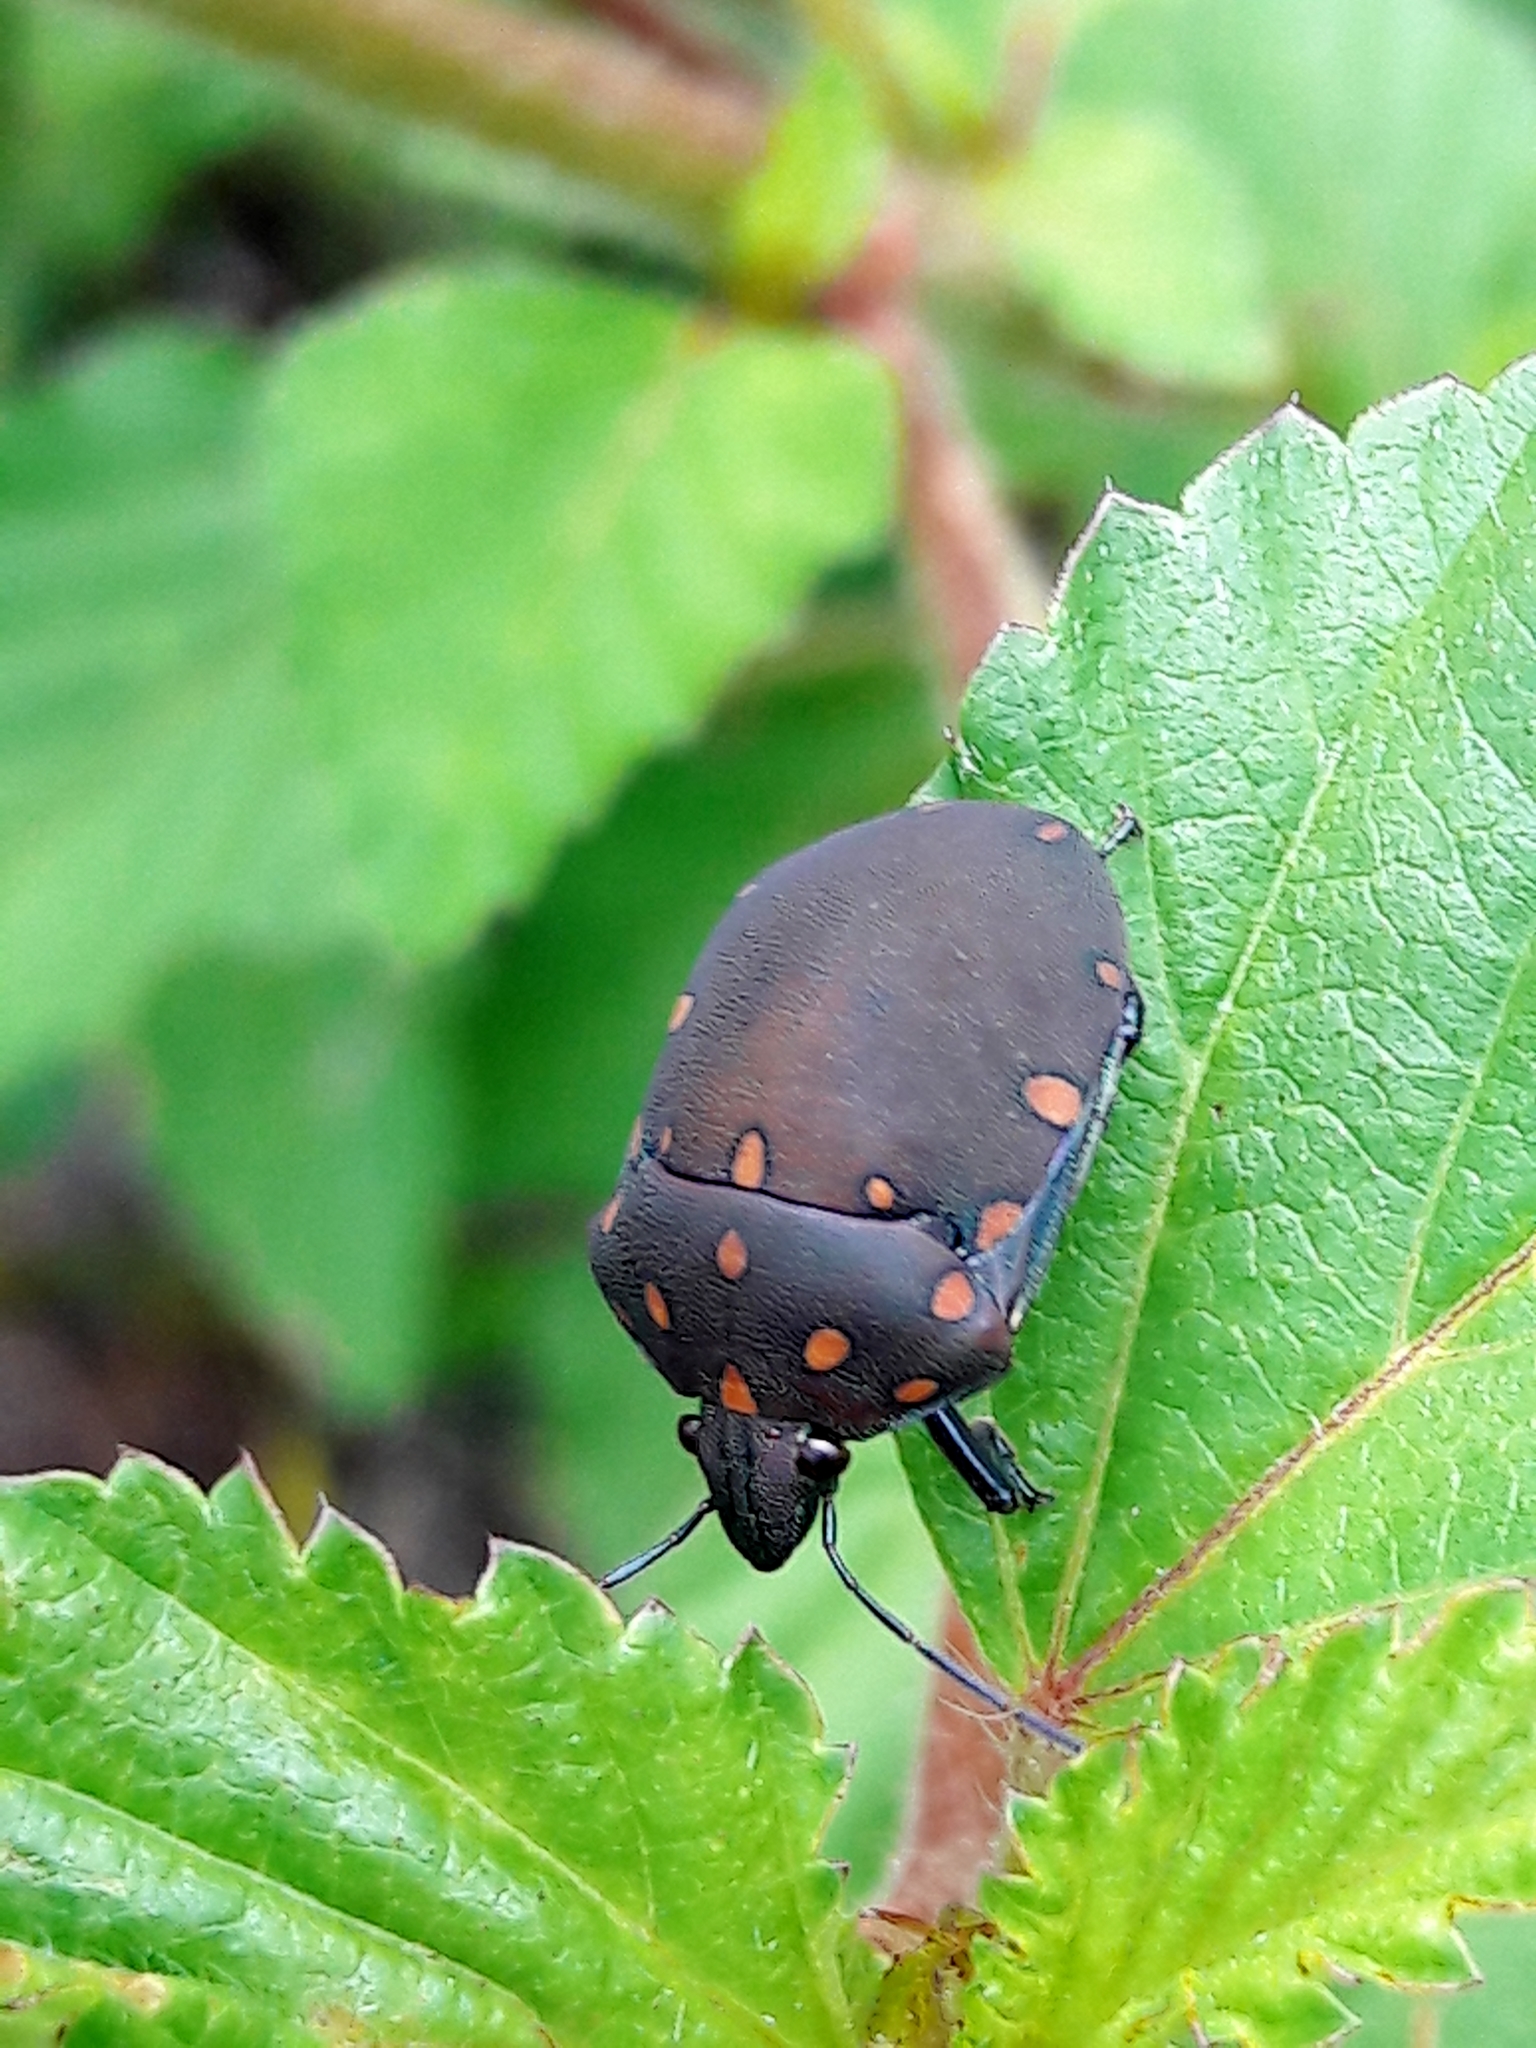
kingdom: Animalia
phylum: Arthropoda
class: Insecta
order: Hemiptera
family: Scutelleridae
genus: Pachycoris
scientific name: Pachycoris torridus
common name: Torrid jewel bug
